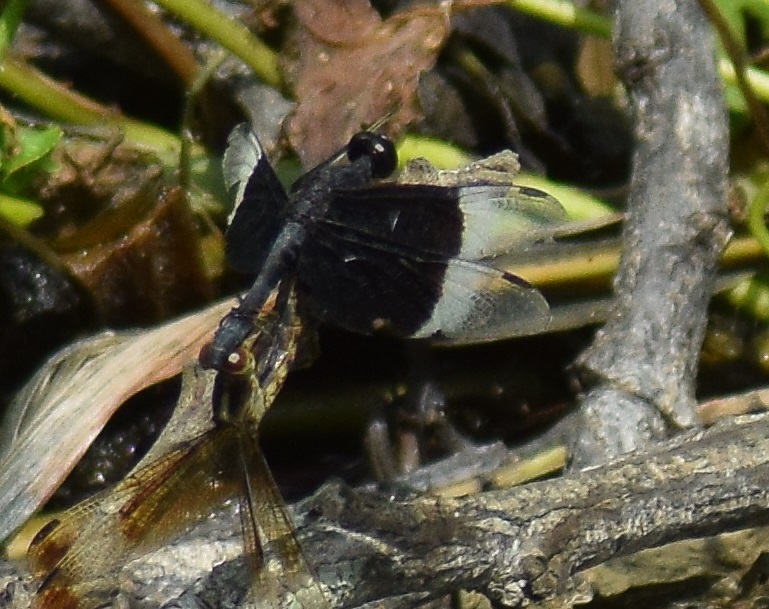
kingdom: Animalia
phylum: Arthropoda
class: Insecta
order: Odonata
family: Libellulidae
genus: Neurothemis
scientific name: Neurothemis tullia
